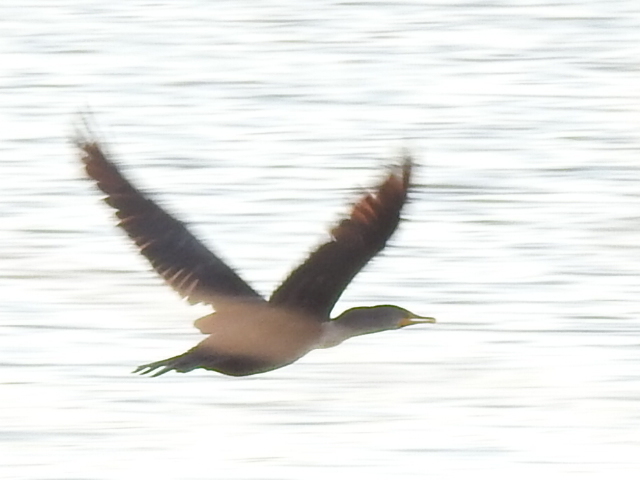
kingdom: Animalia
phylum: Chordata
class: Aves
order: Suliformes
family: Phalacrocoracidae
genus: Phalacrocorax
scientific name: Phalacrocorax auritus
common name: Double-crested cormorant
